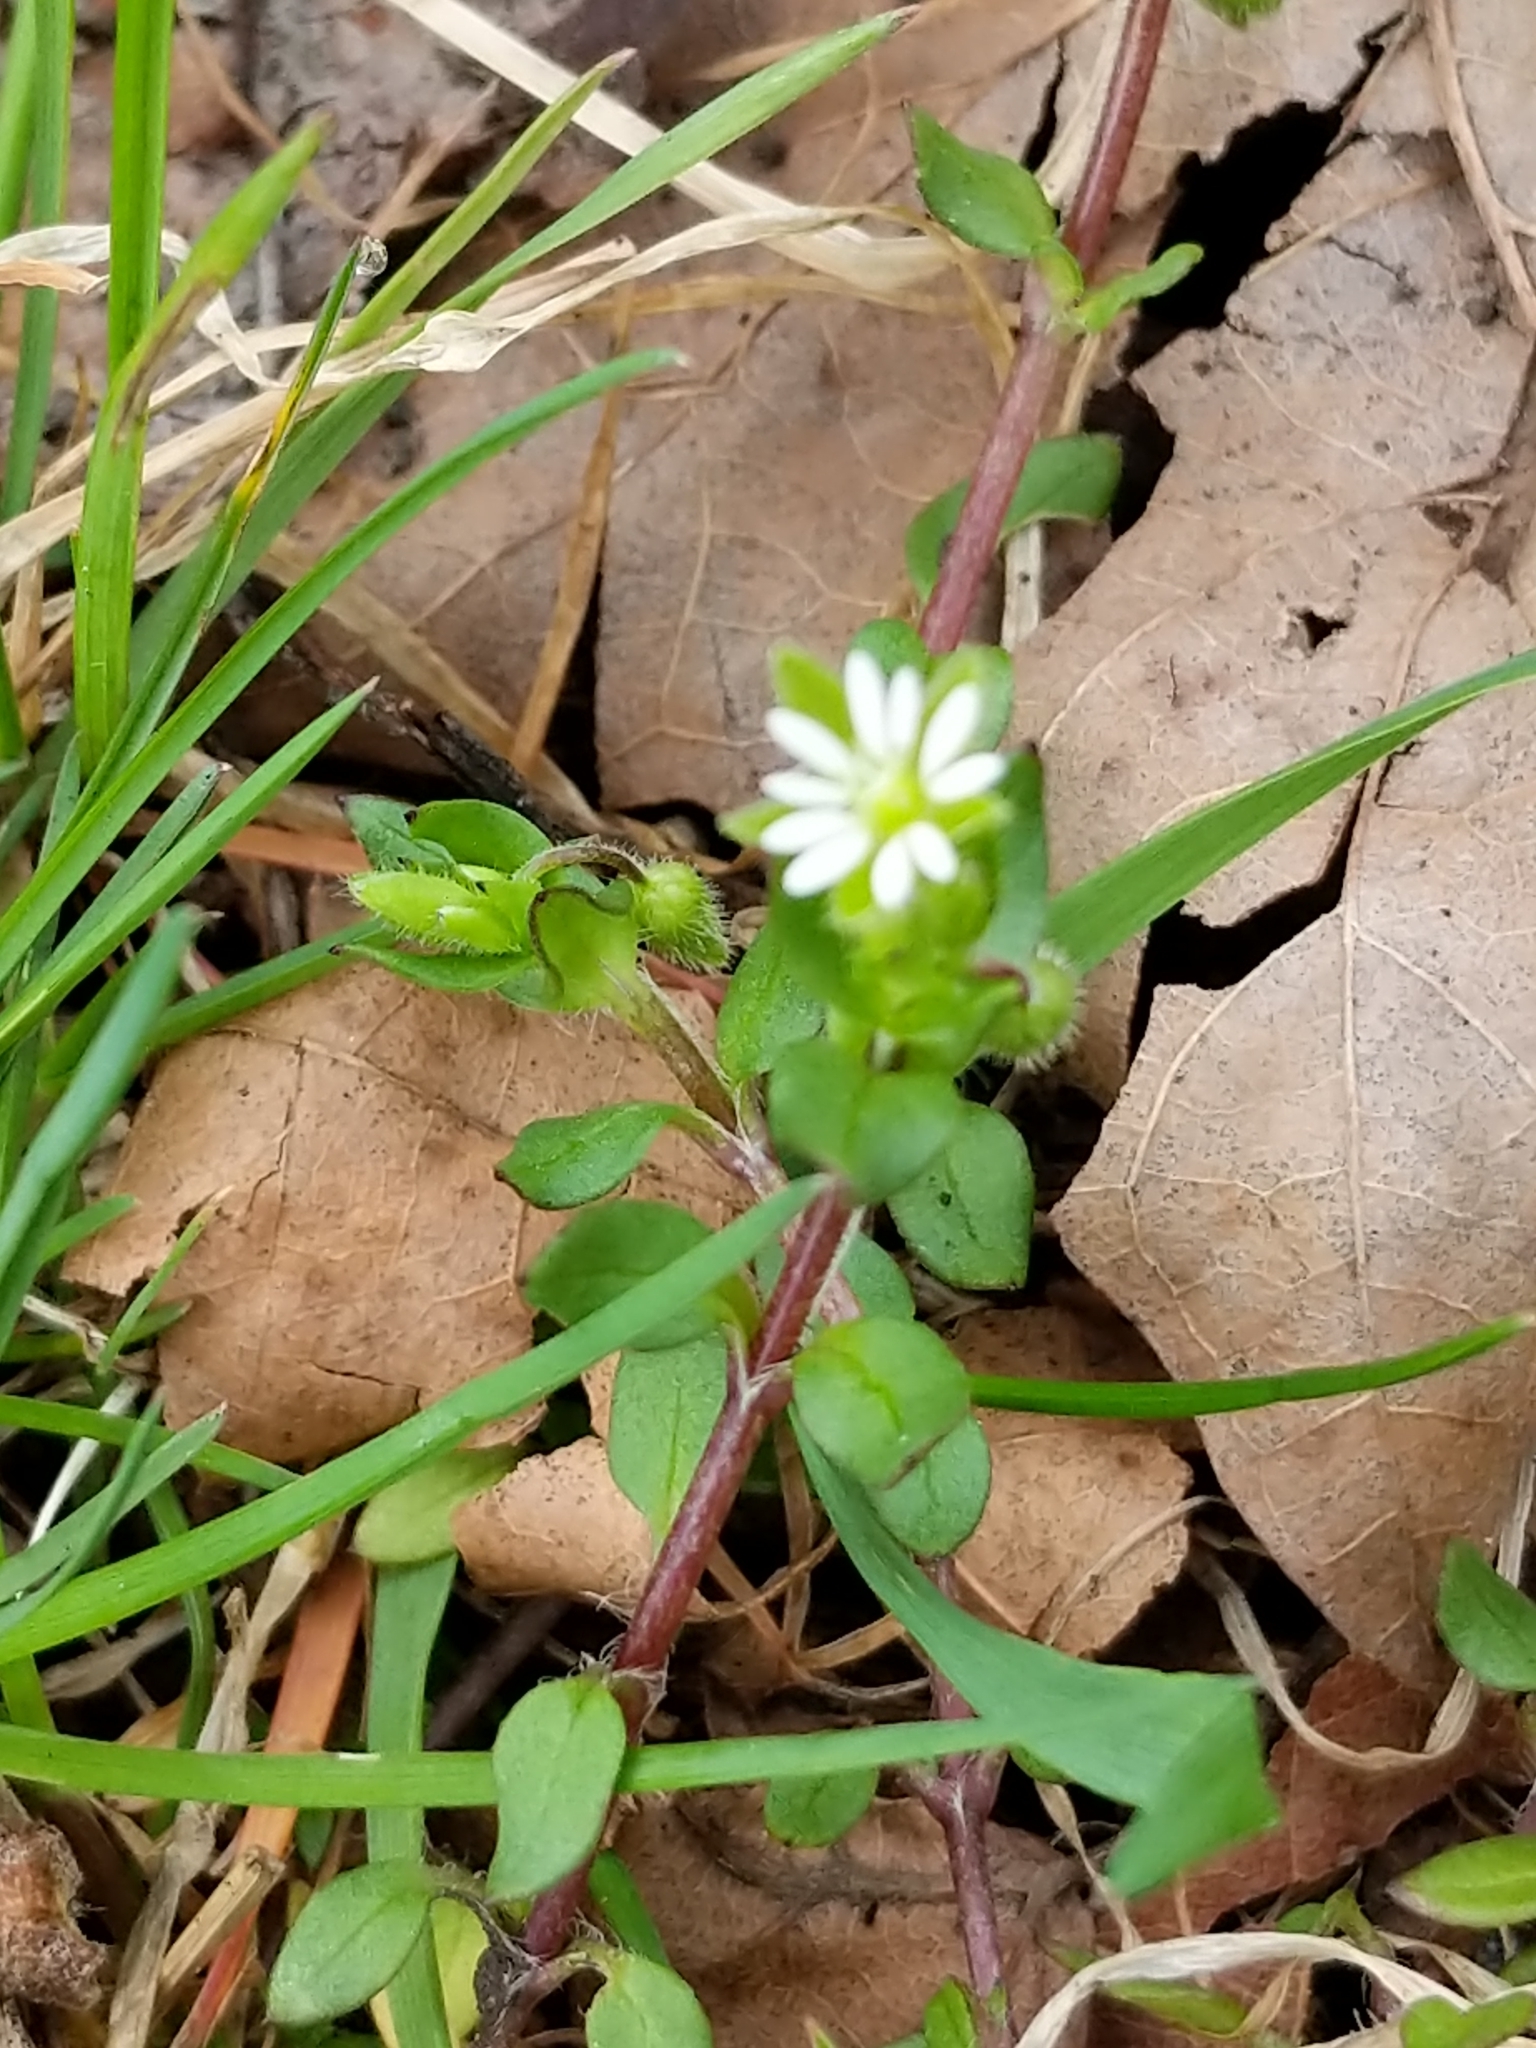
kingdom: Plantae
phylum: Tracheophyta
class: Magnoliopsida
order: Caryophyllales
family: Caryophyllaceae
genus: Stellaria
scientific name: Stellaria media
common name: Common chickweed
